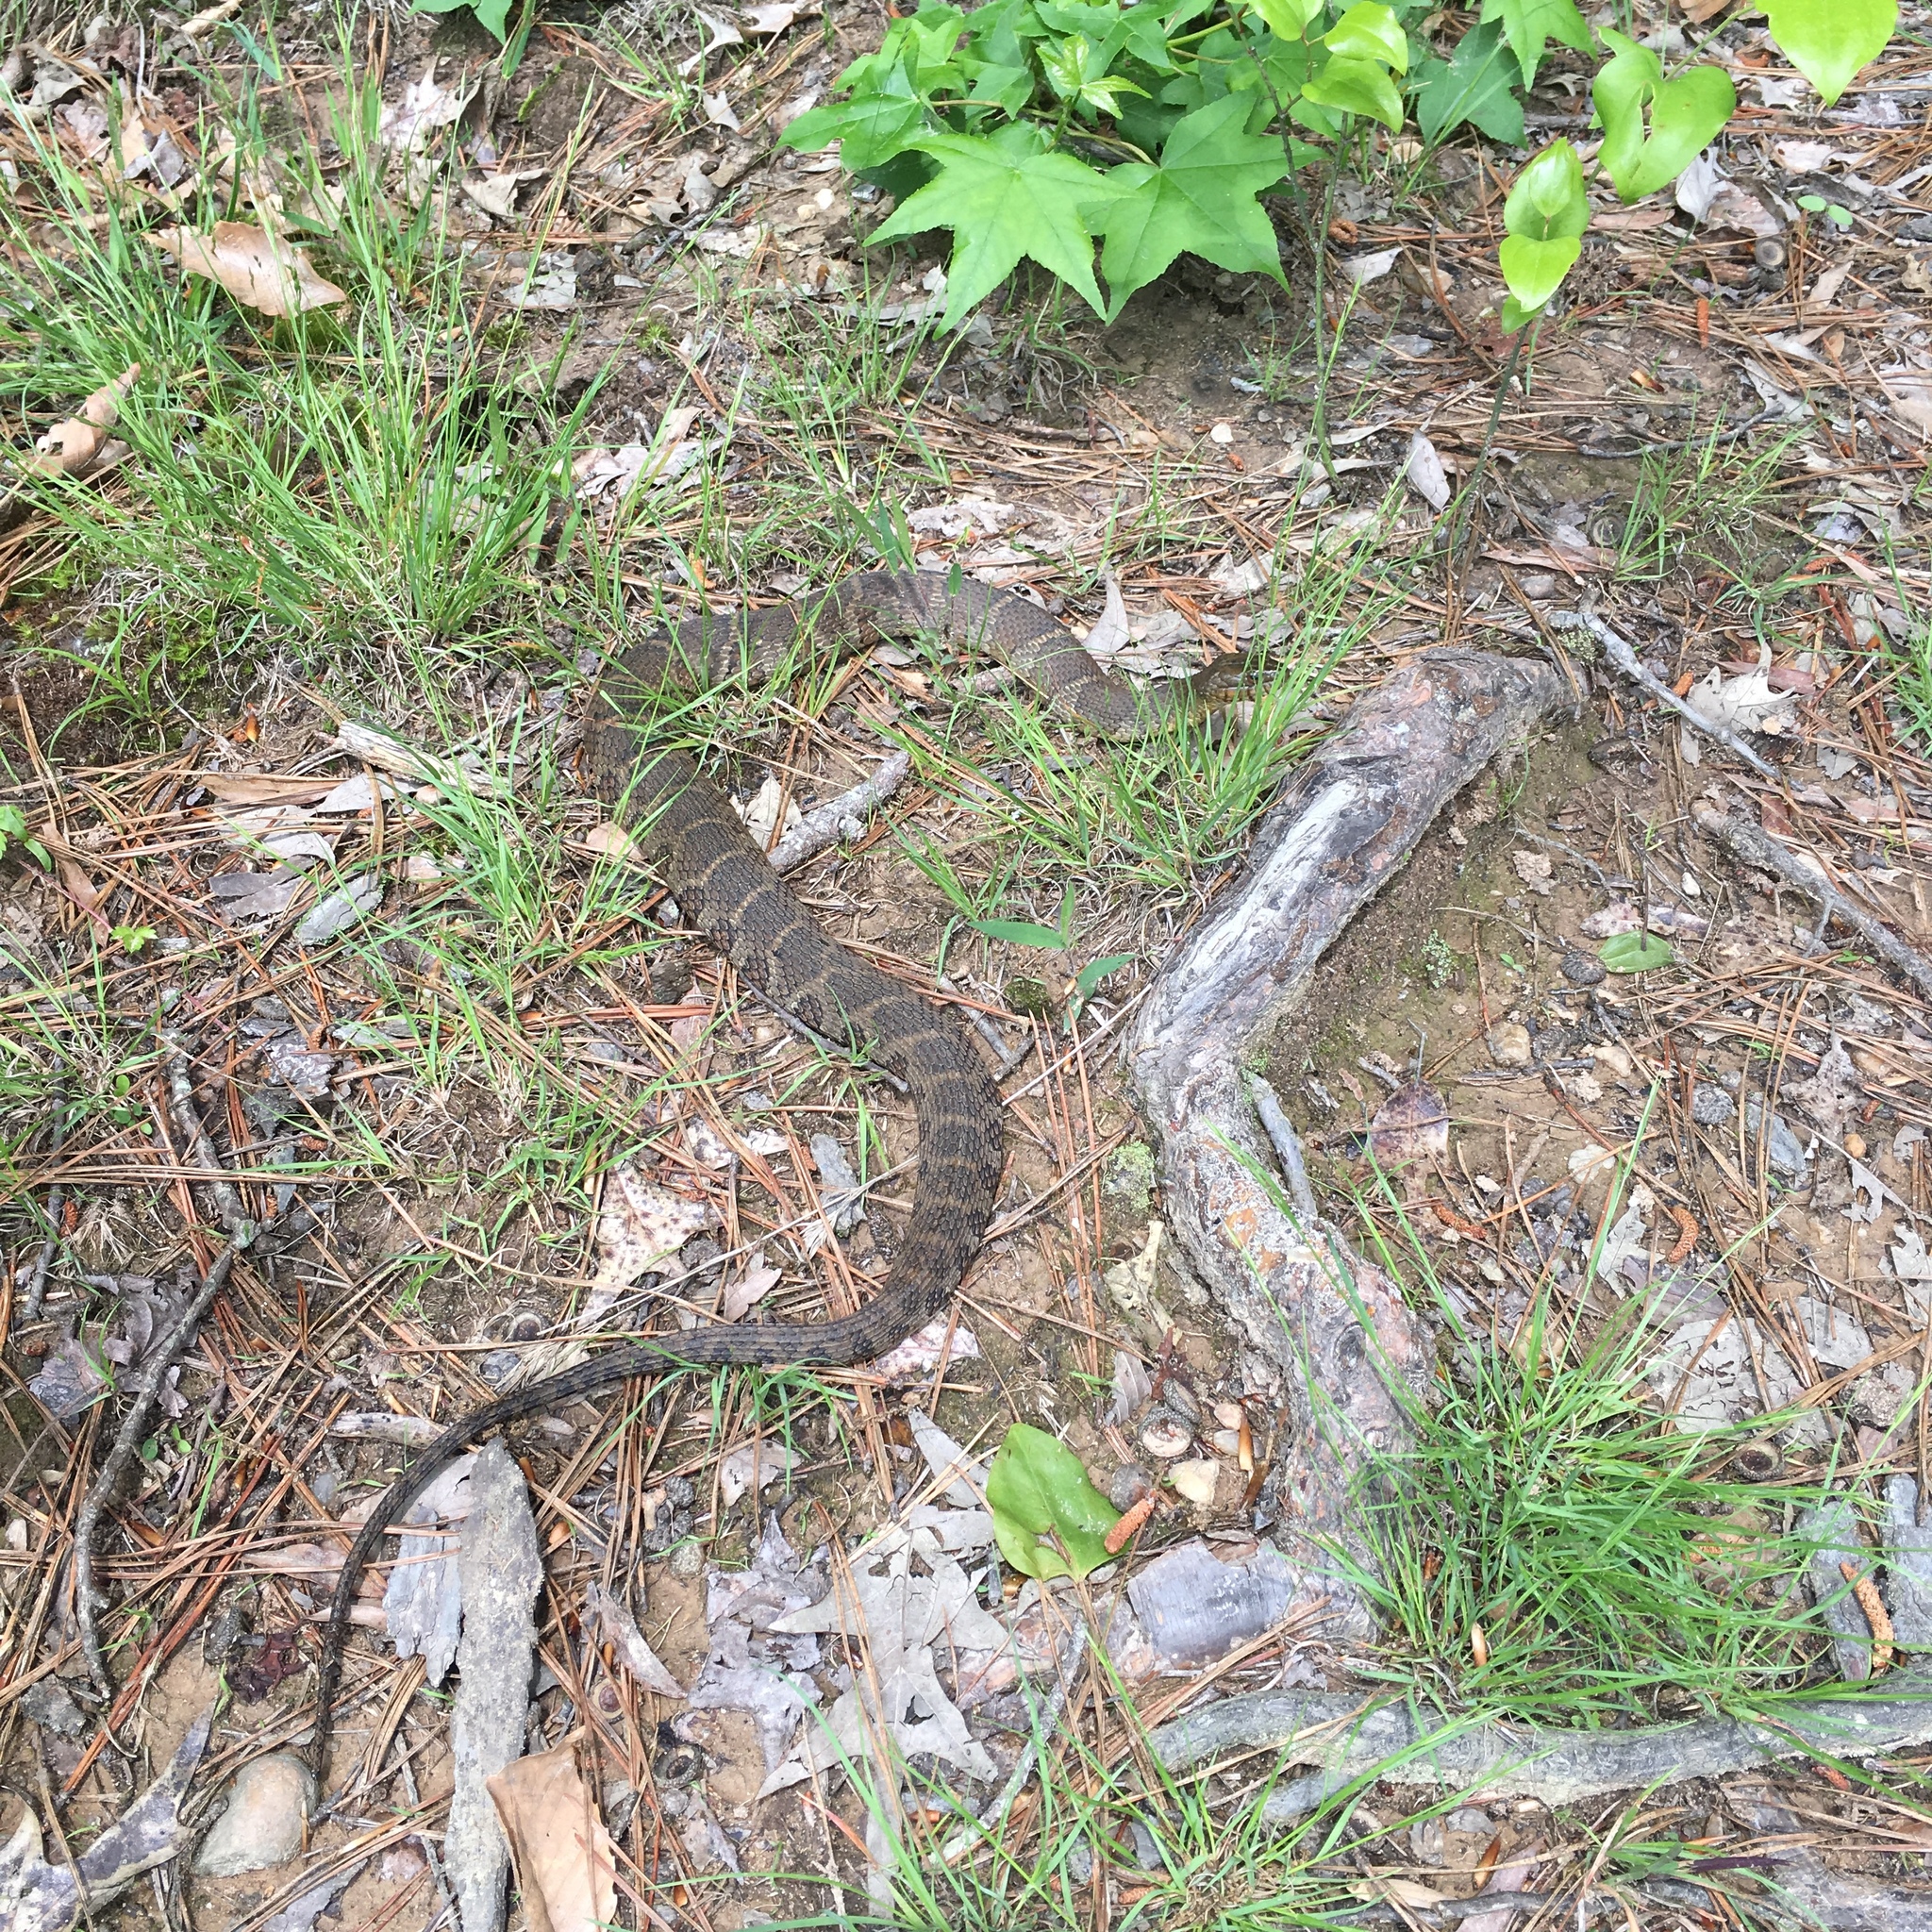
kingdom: Animalia
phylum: Chordata
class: Squamata
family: Colubridae
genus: Nerodia
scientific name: Nerodia sipedon
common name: Northern water snake
